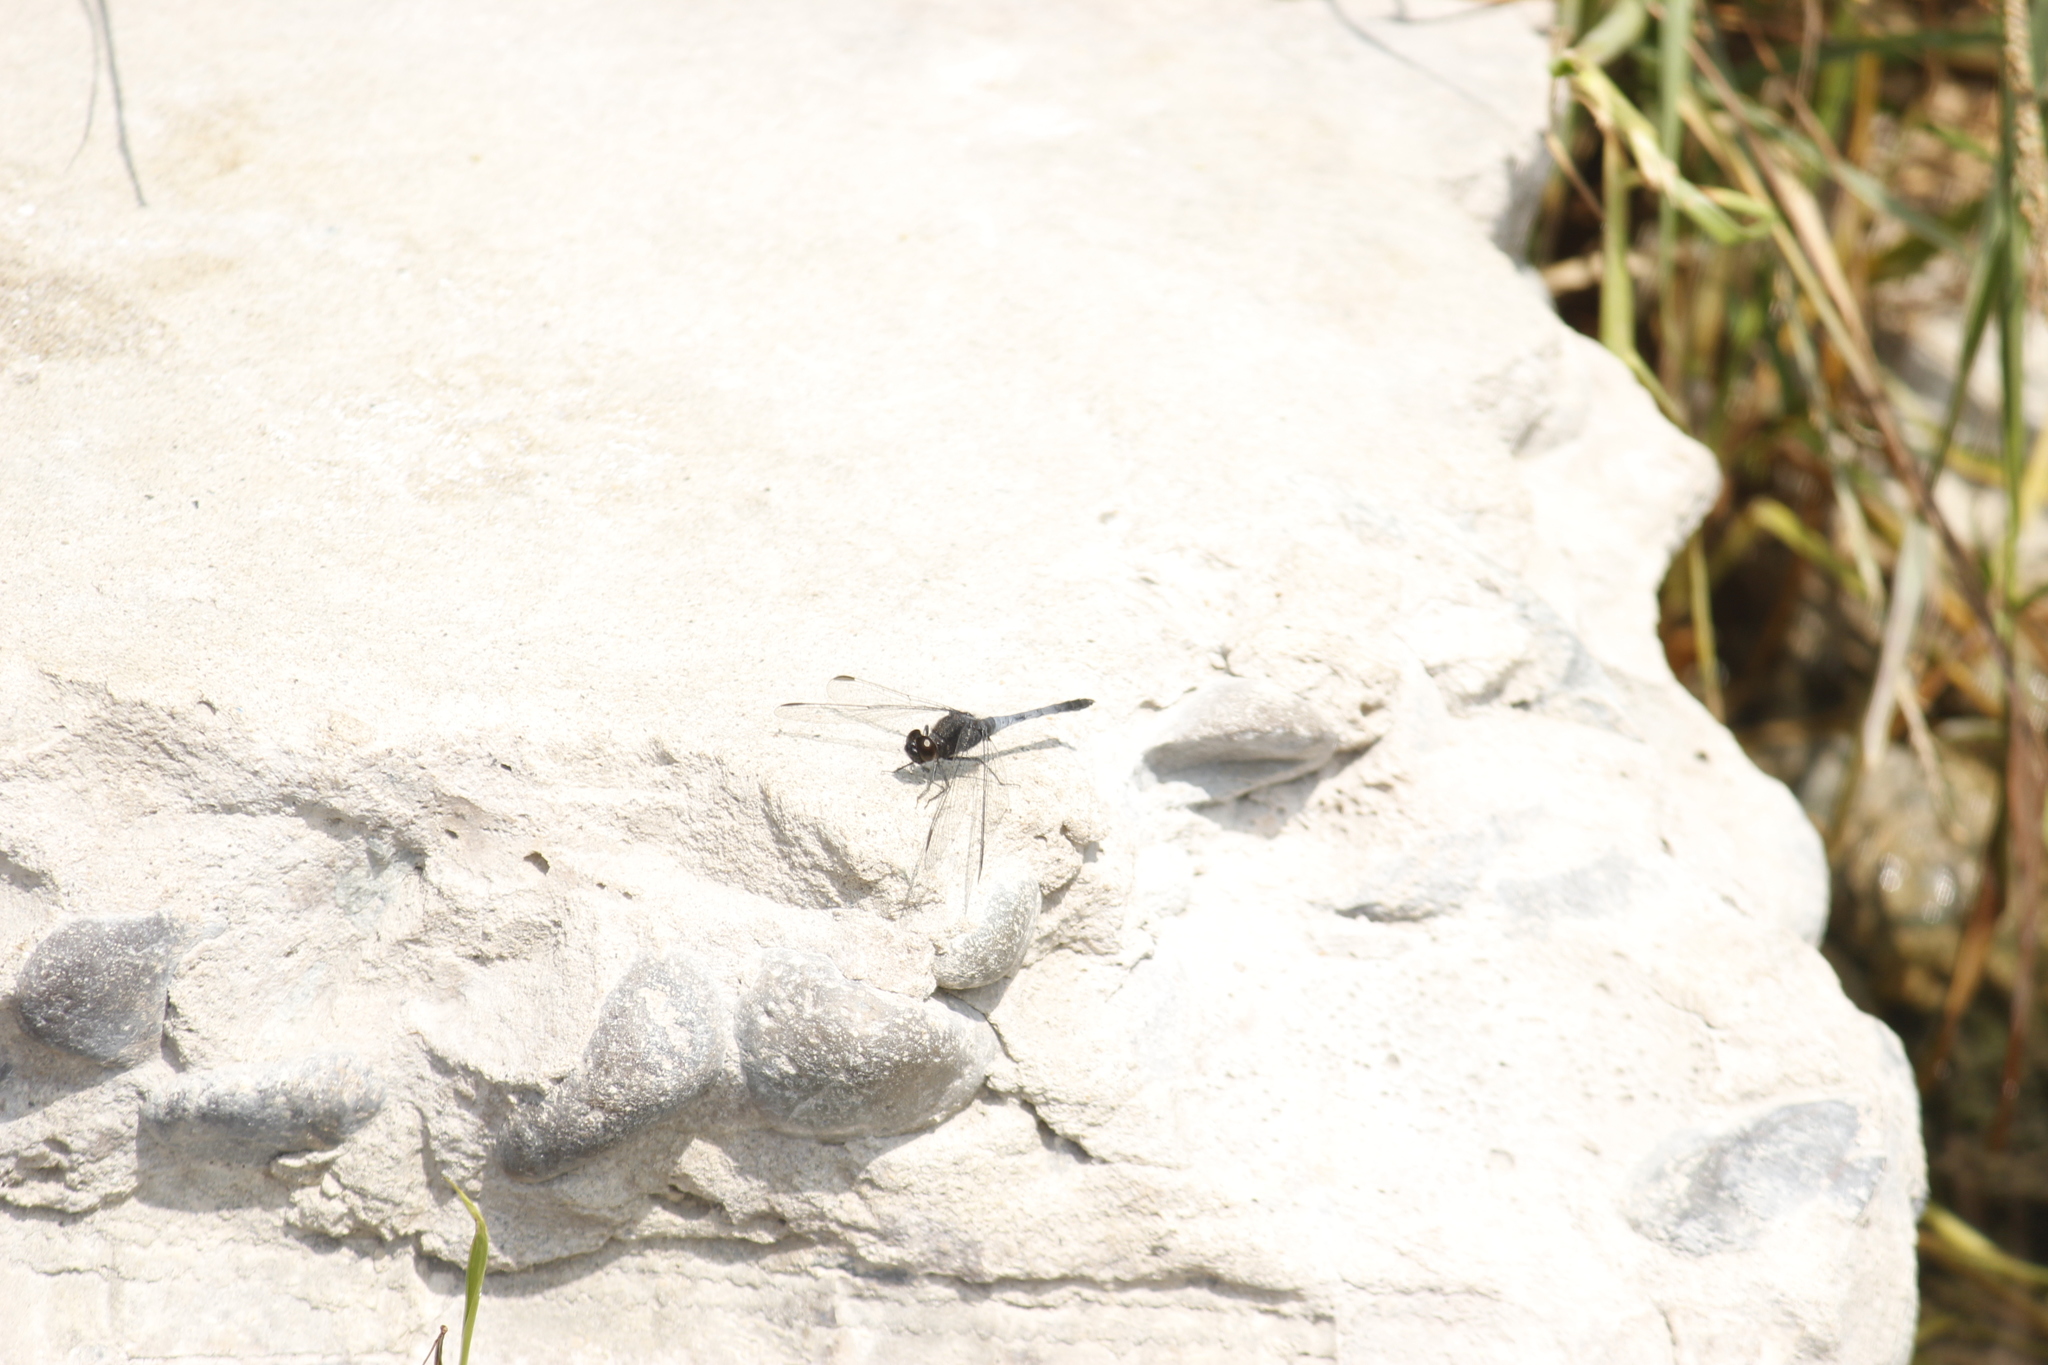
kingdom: Animalia
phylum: Arthropoda
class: Insecta
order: Odonata
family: Libellulidae
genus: Erythrodiplax
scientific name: Erythrodiplax cleopatra
